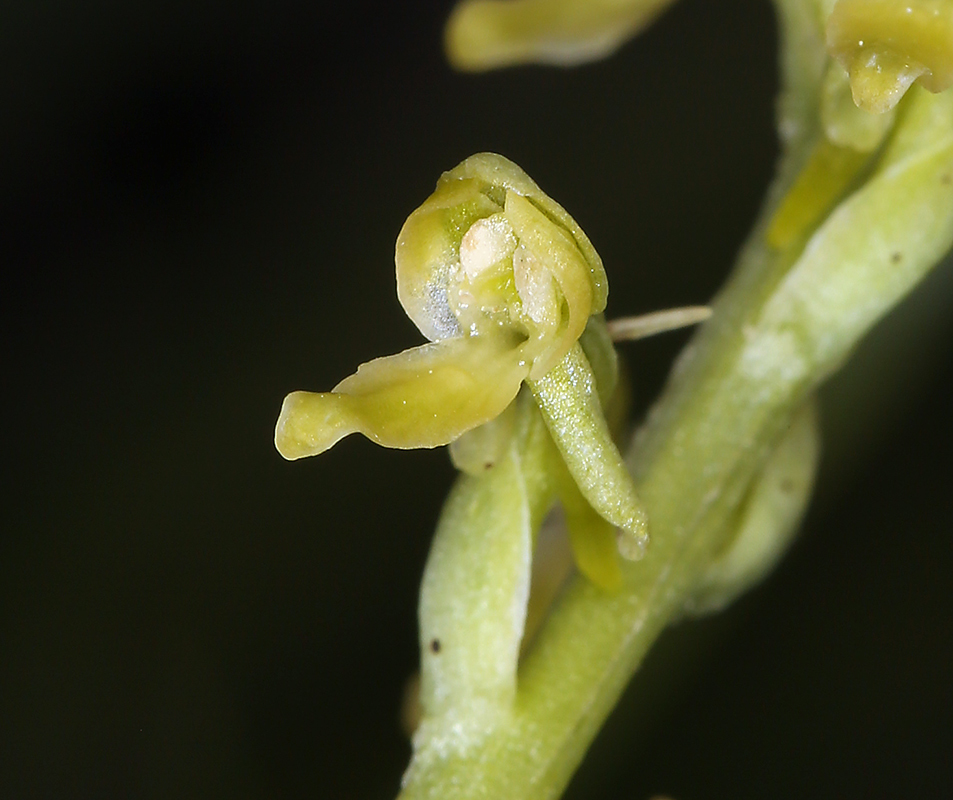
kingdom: Plantae
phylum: Tracheophyta
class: Liliopsida
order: Asparagales
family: Orchidaceae
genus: Platanthera
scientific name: Platanthera tescamnis
